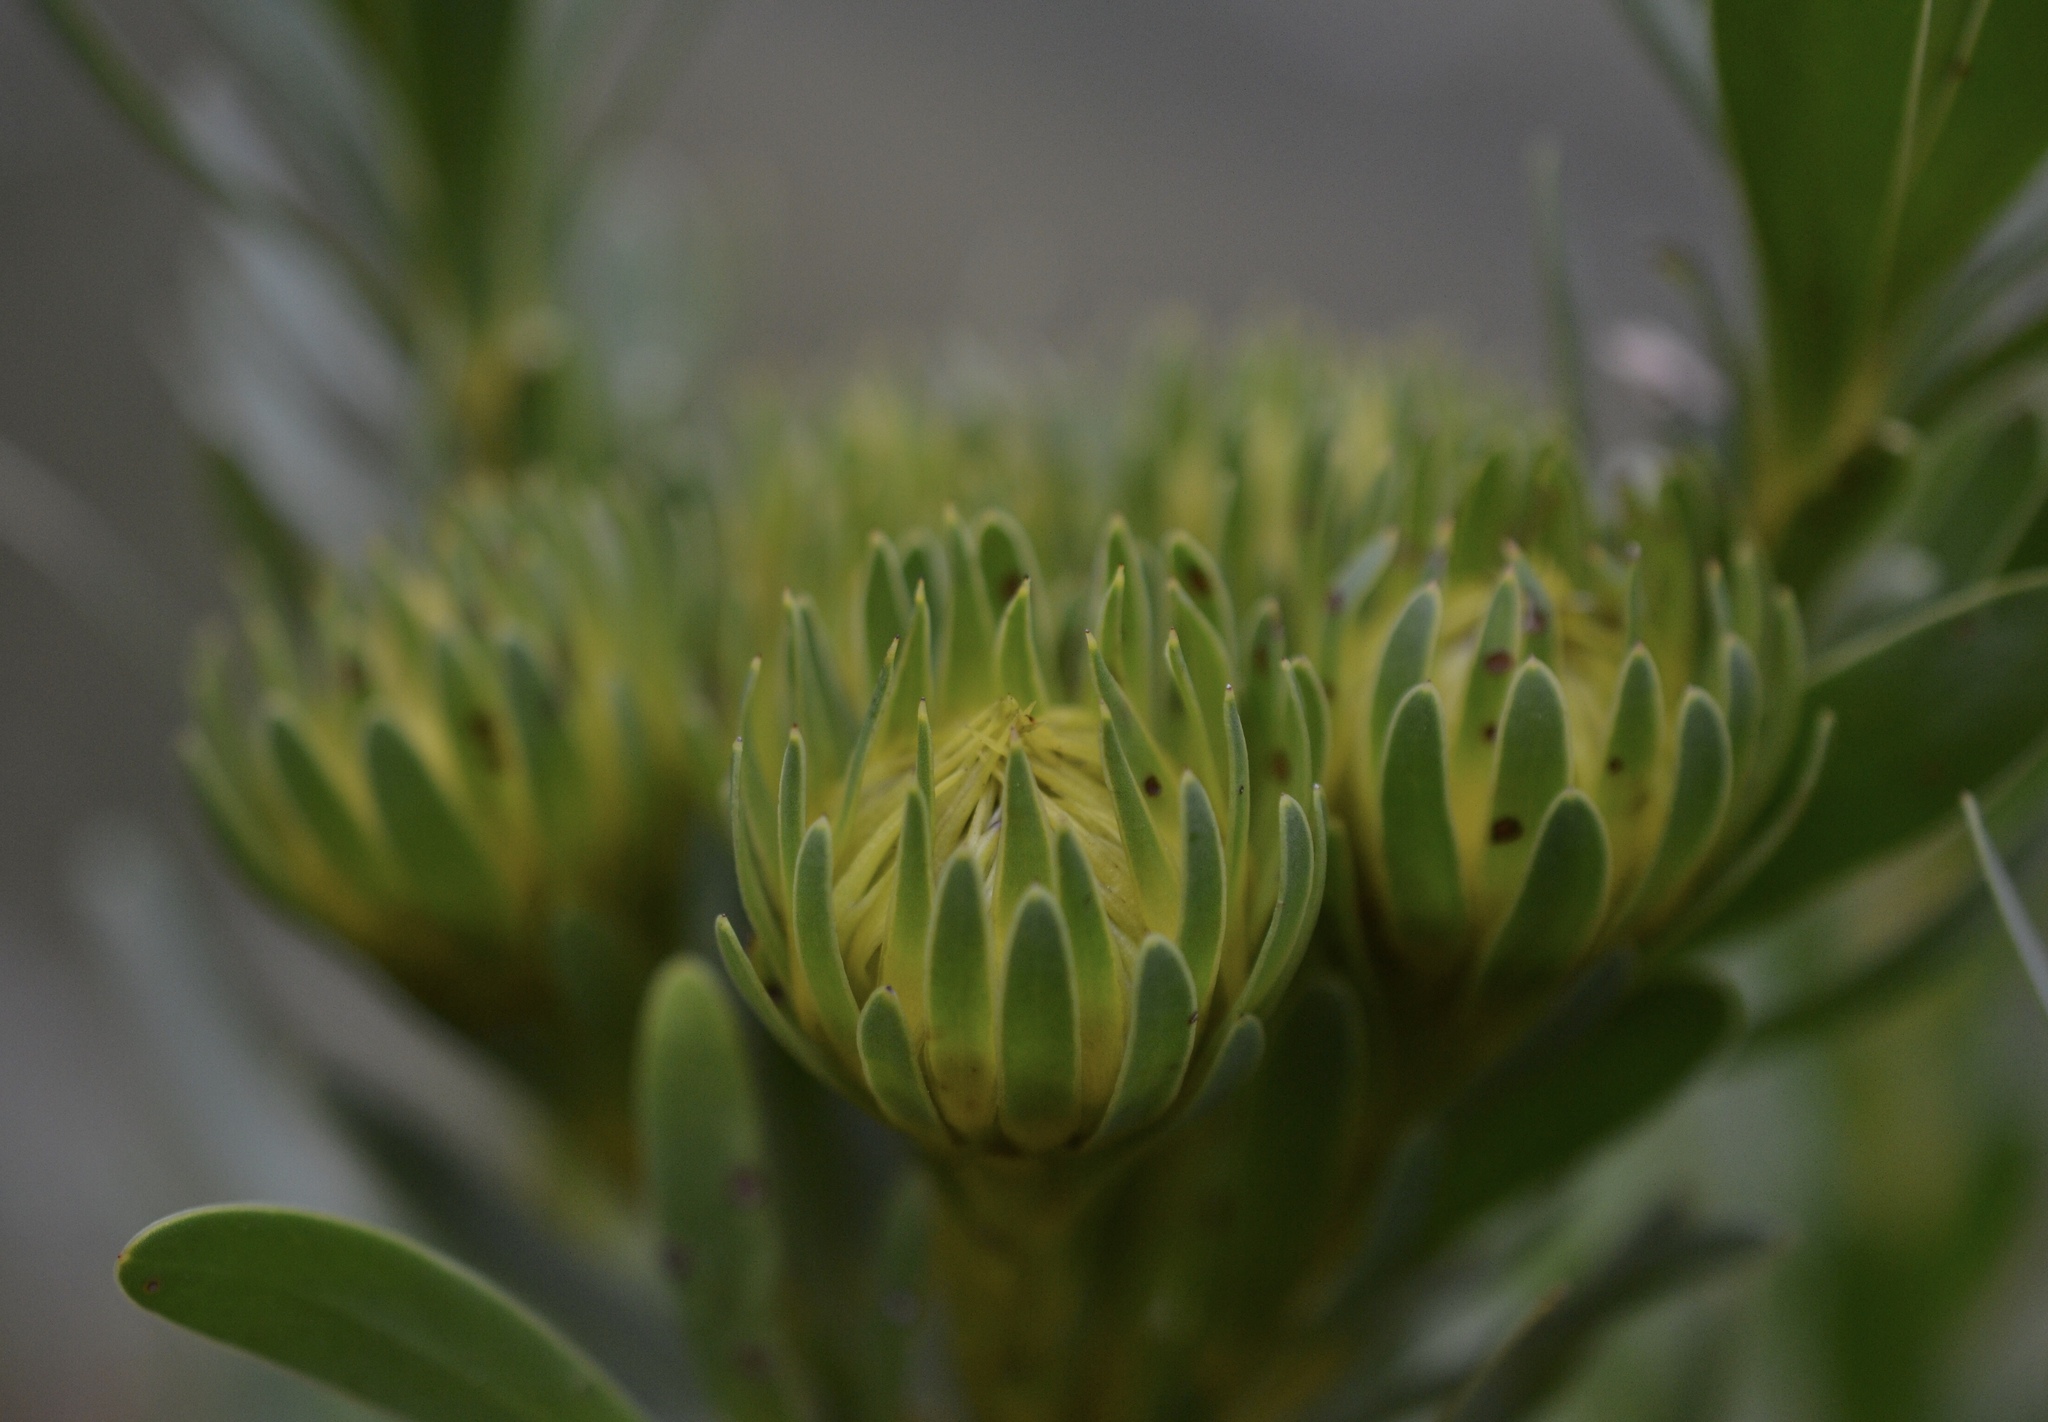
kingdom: Plantae
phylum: Tracheophyta
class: Magnoliopsida
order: Proteales
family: Proteaceae
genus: Aulax
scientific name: Aulax umbellata
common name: Broad-leaf featherbush
